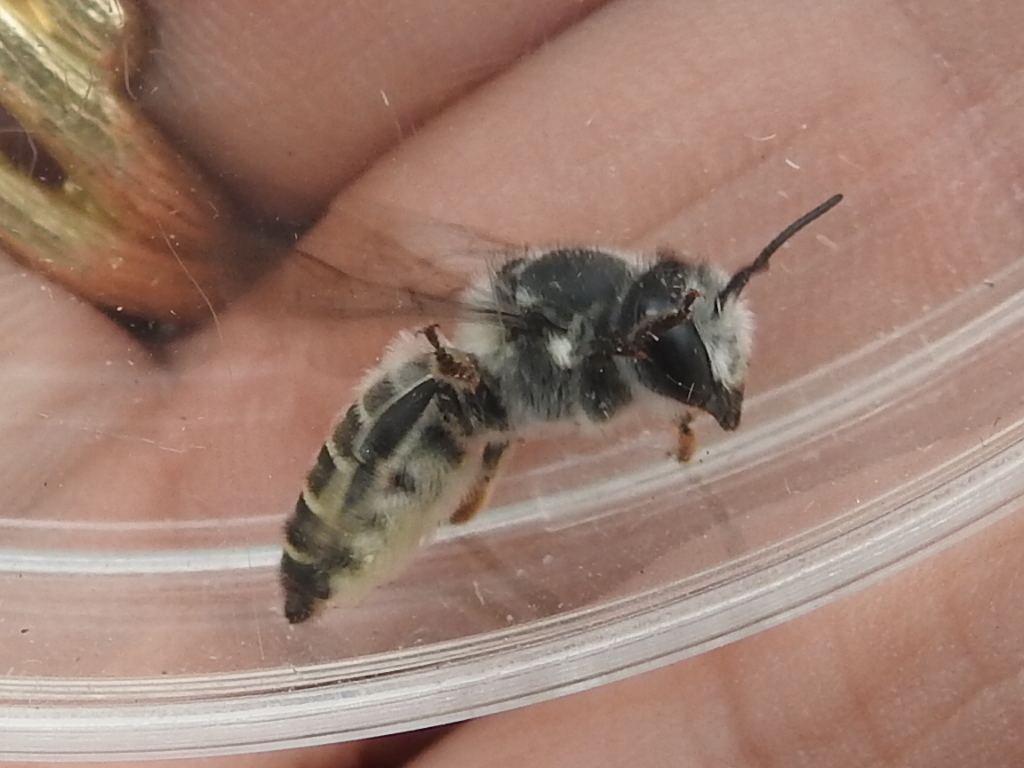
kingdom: Animalia
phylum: Arthropoda
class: Insecta
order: Hymenoptera
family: Megachilidae
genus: Megachile
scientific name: Megachile lippiae
